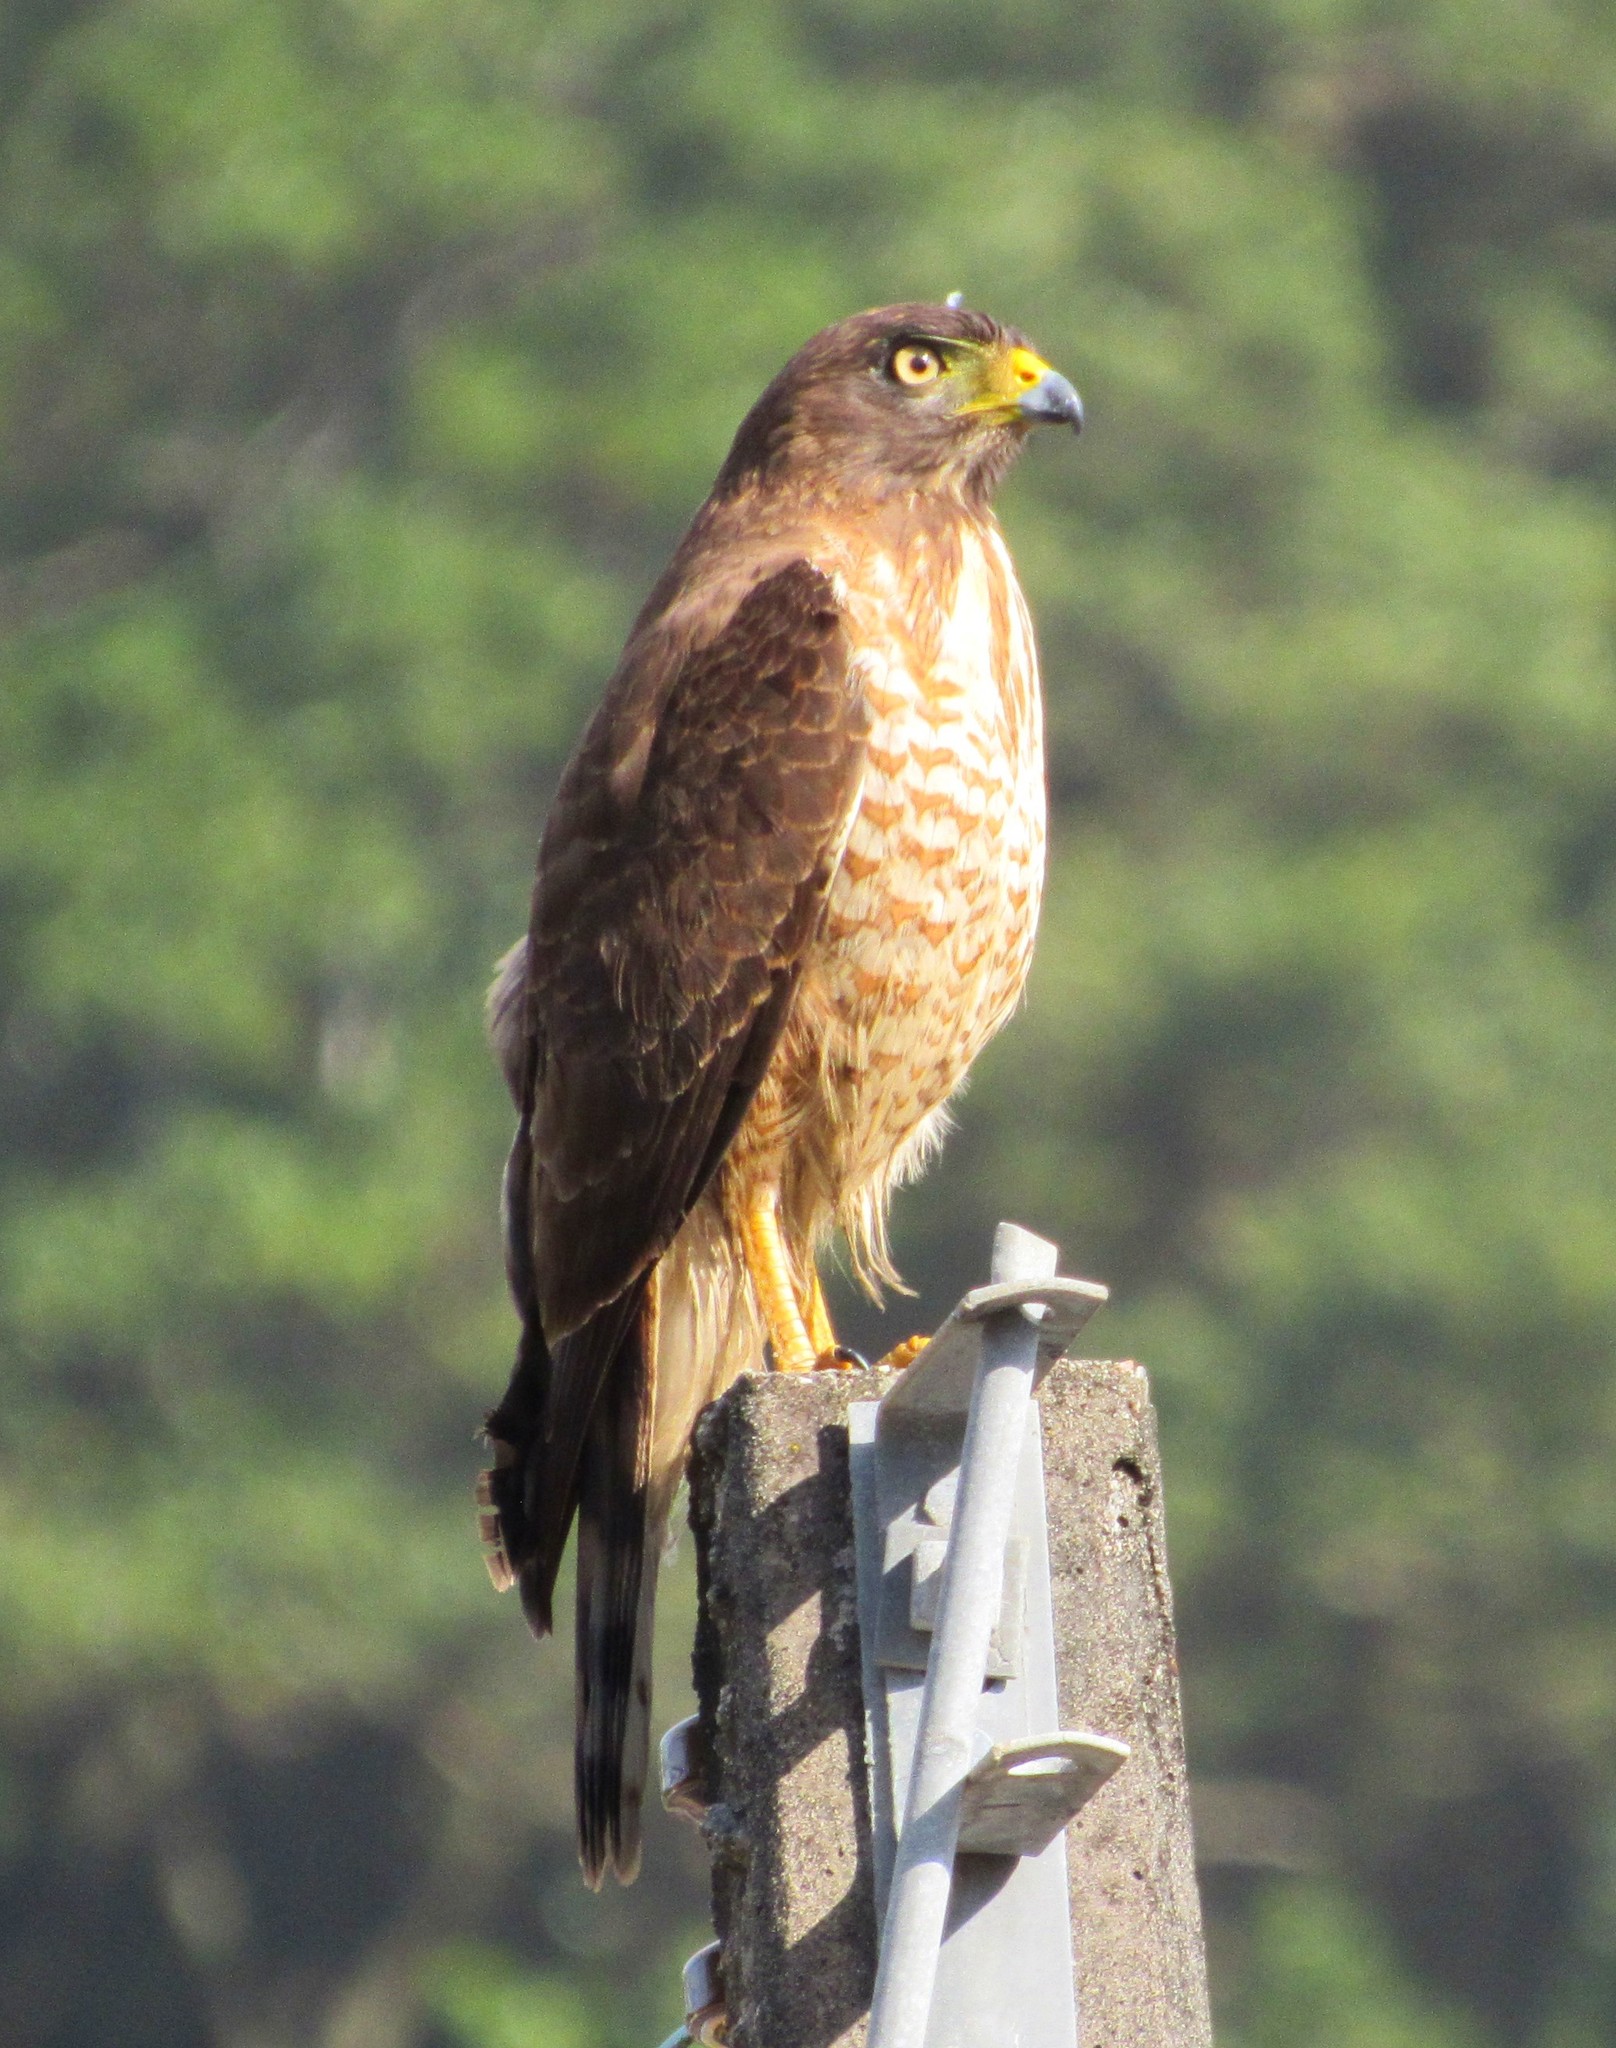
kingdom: Animalia
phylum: Chordata
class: Aves
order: Accipitriformes
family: Accipitridae
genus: Rupornis
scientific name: Rupornis magnirostris
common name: Roadside hawk
